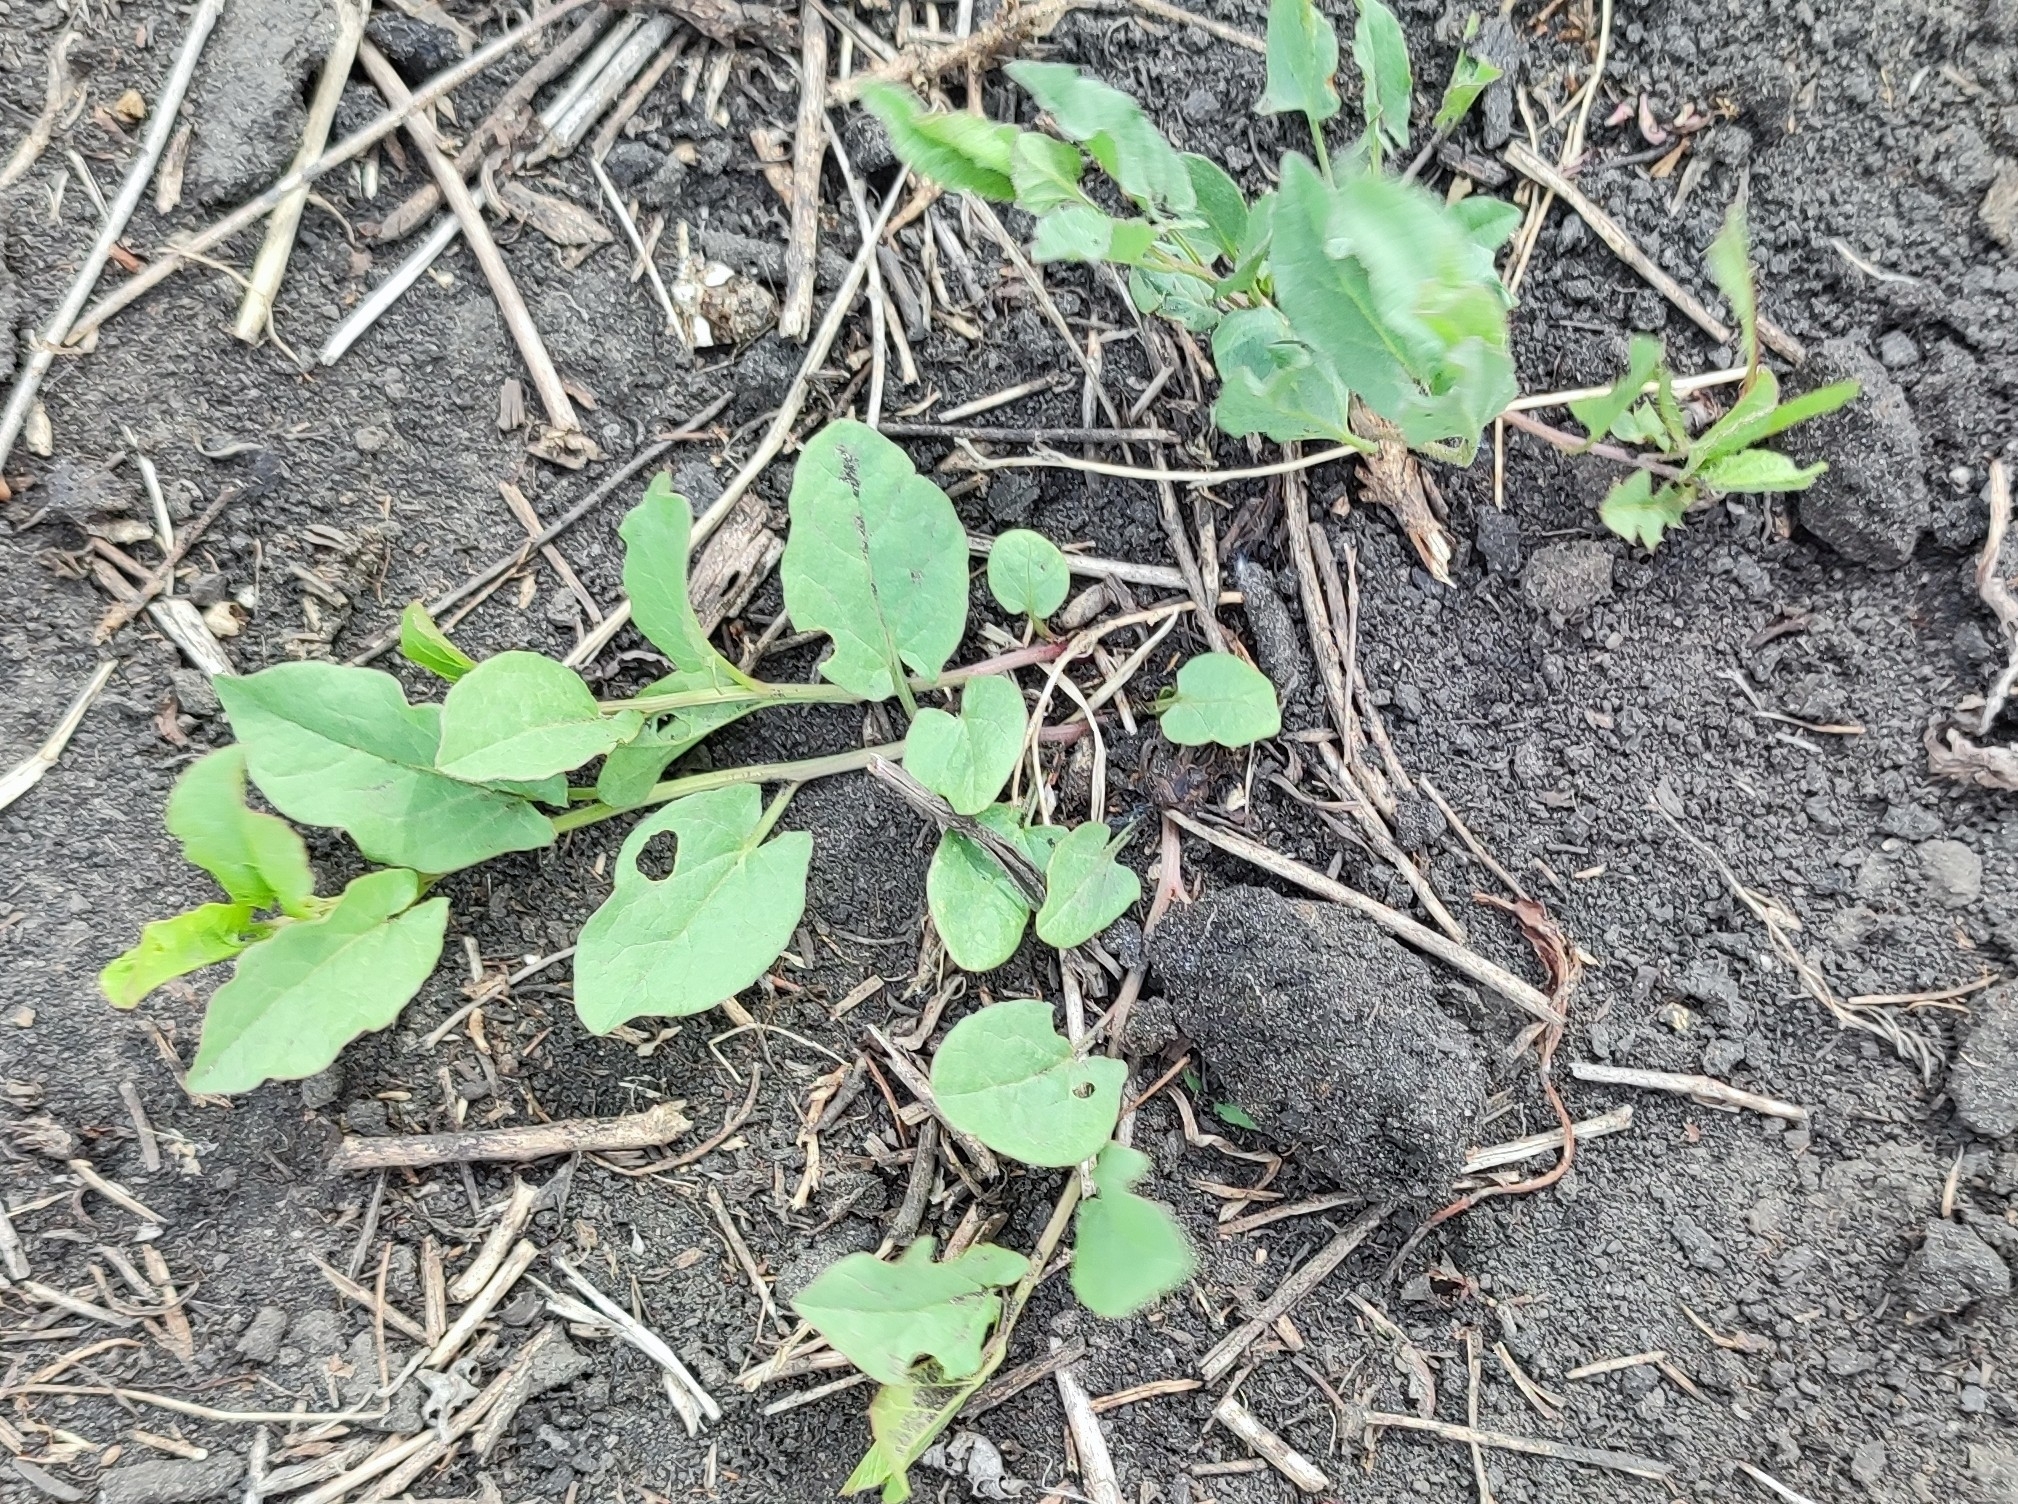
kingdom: Plantae
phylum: Tracheophyta
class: Magnoliopsida
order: Solanales
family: Convolvulaceae
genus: Convolvulus
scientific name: Convolvulus arvensis
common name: Field bindweed
